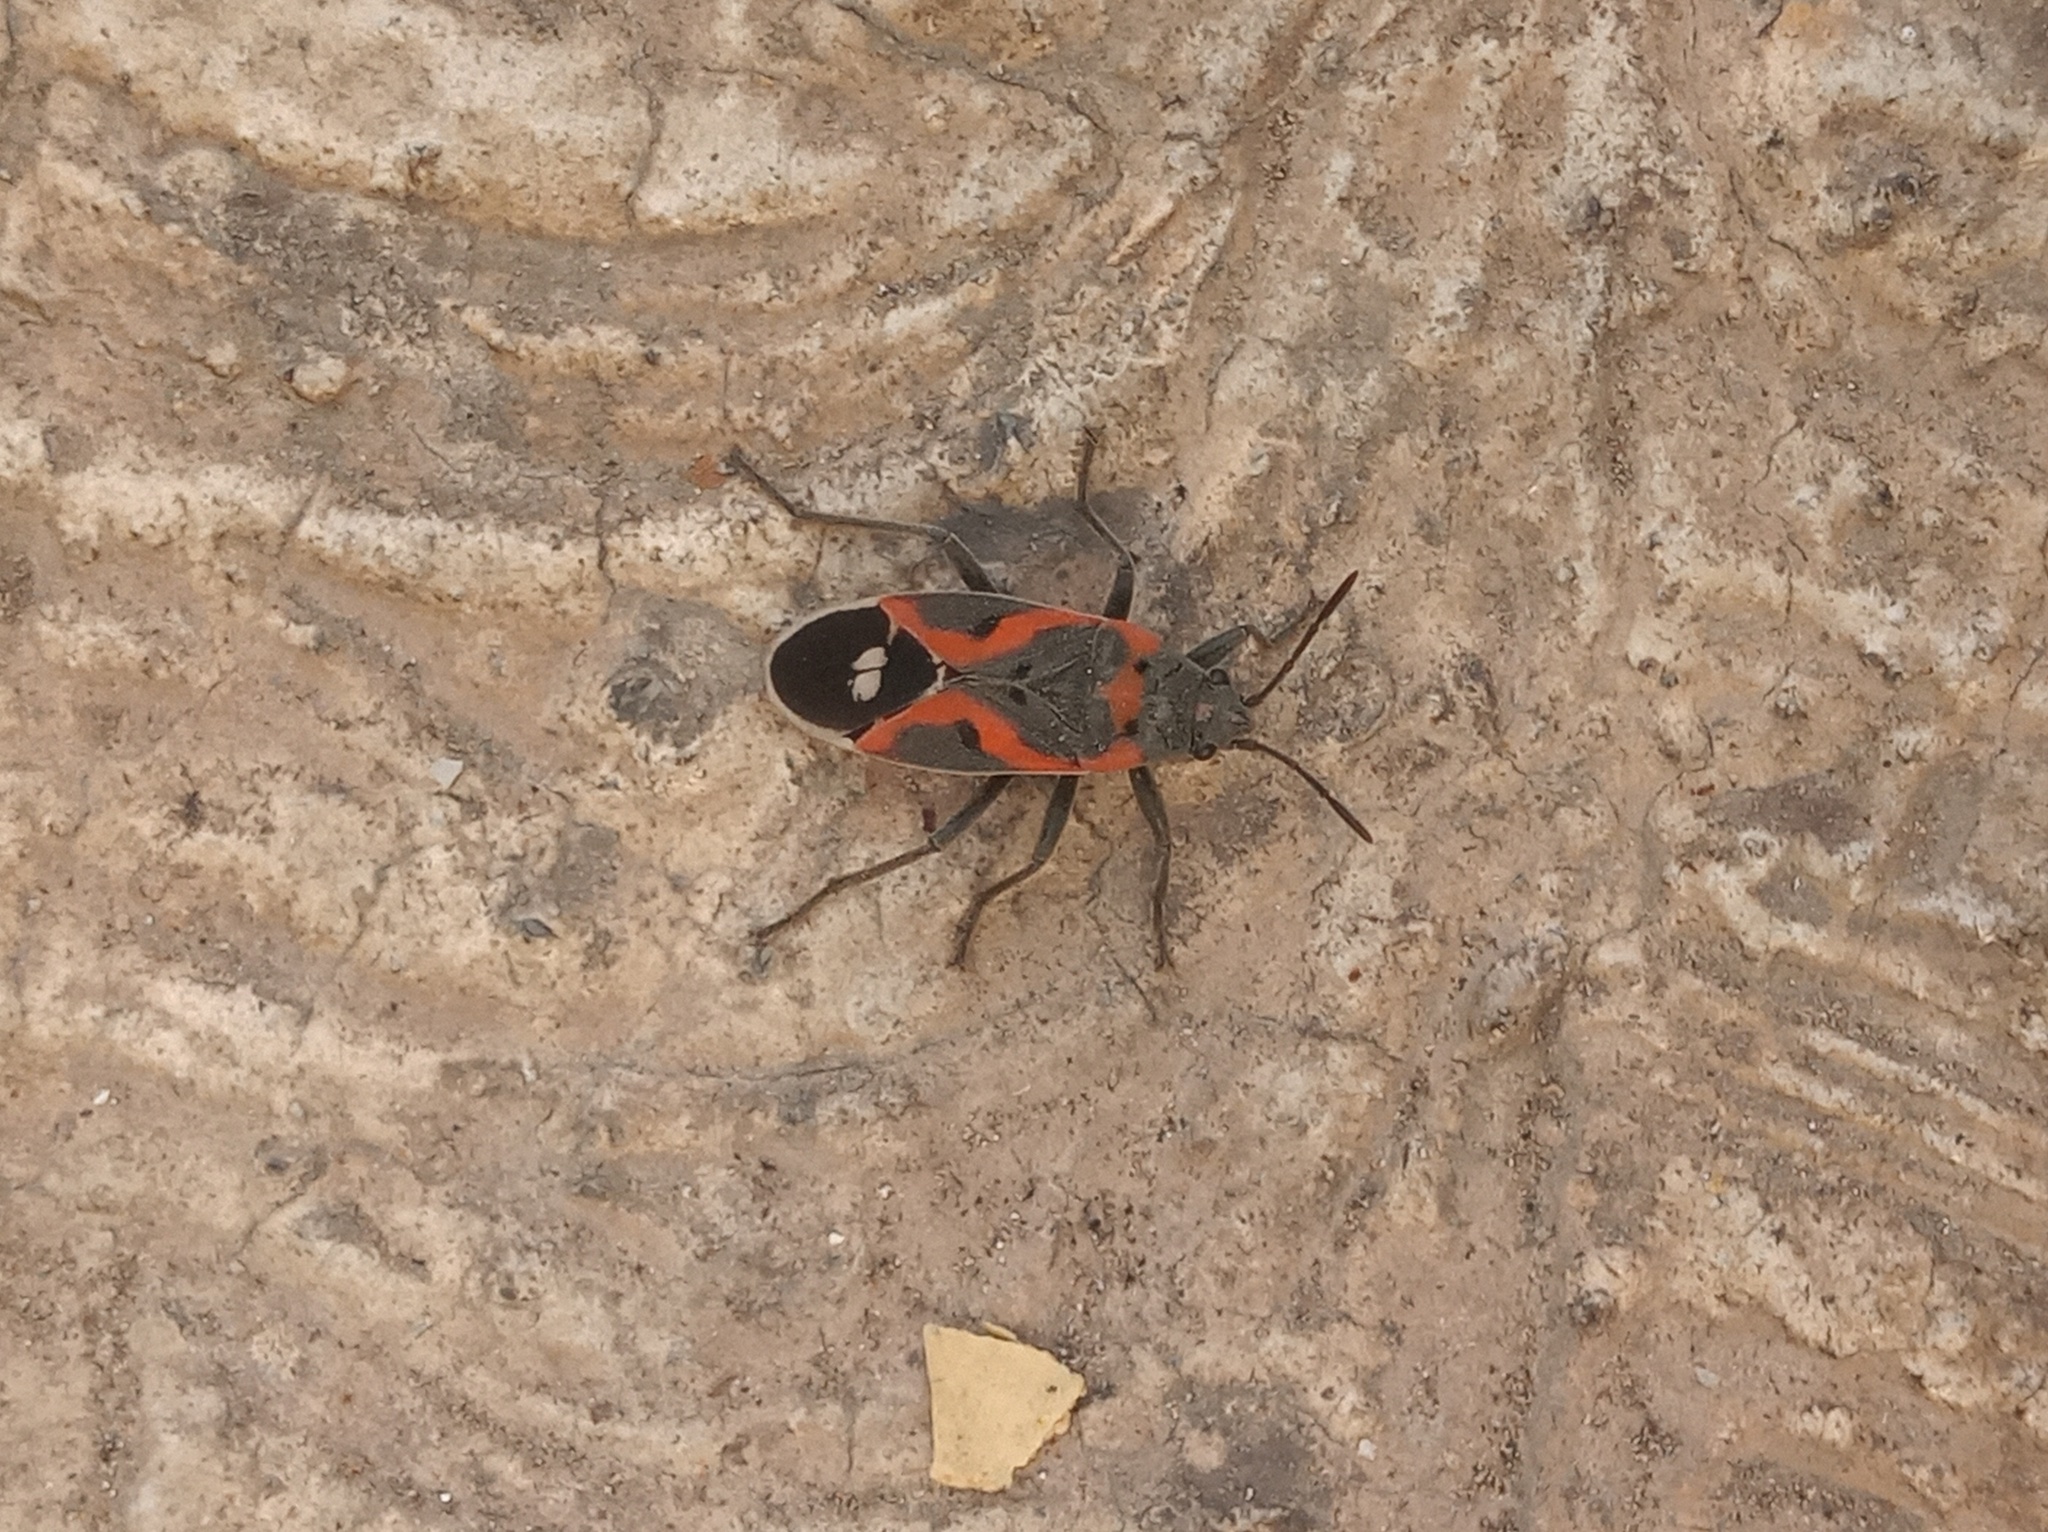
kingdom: Animalia
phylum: Arthropoda
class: Insecta
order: Hemiptera
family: Lygaeidae
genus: Lygaeus
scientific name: Lygaeus kalmii
